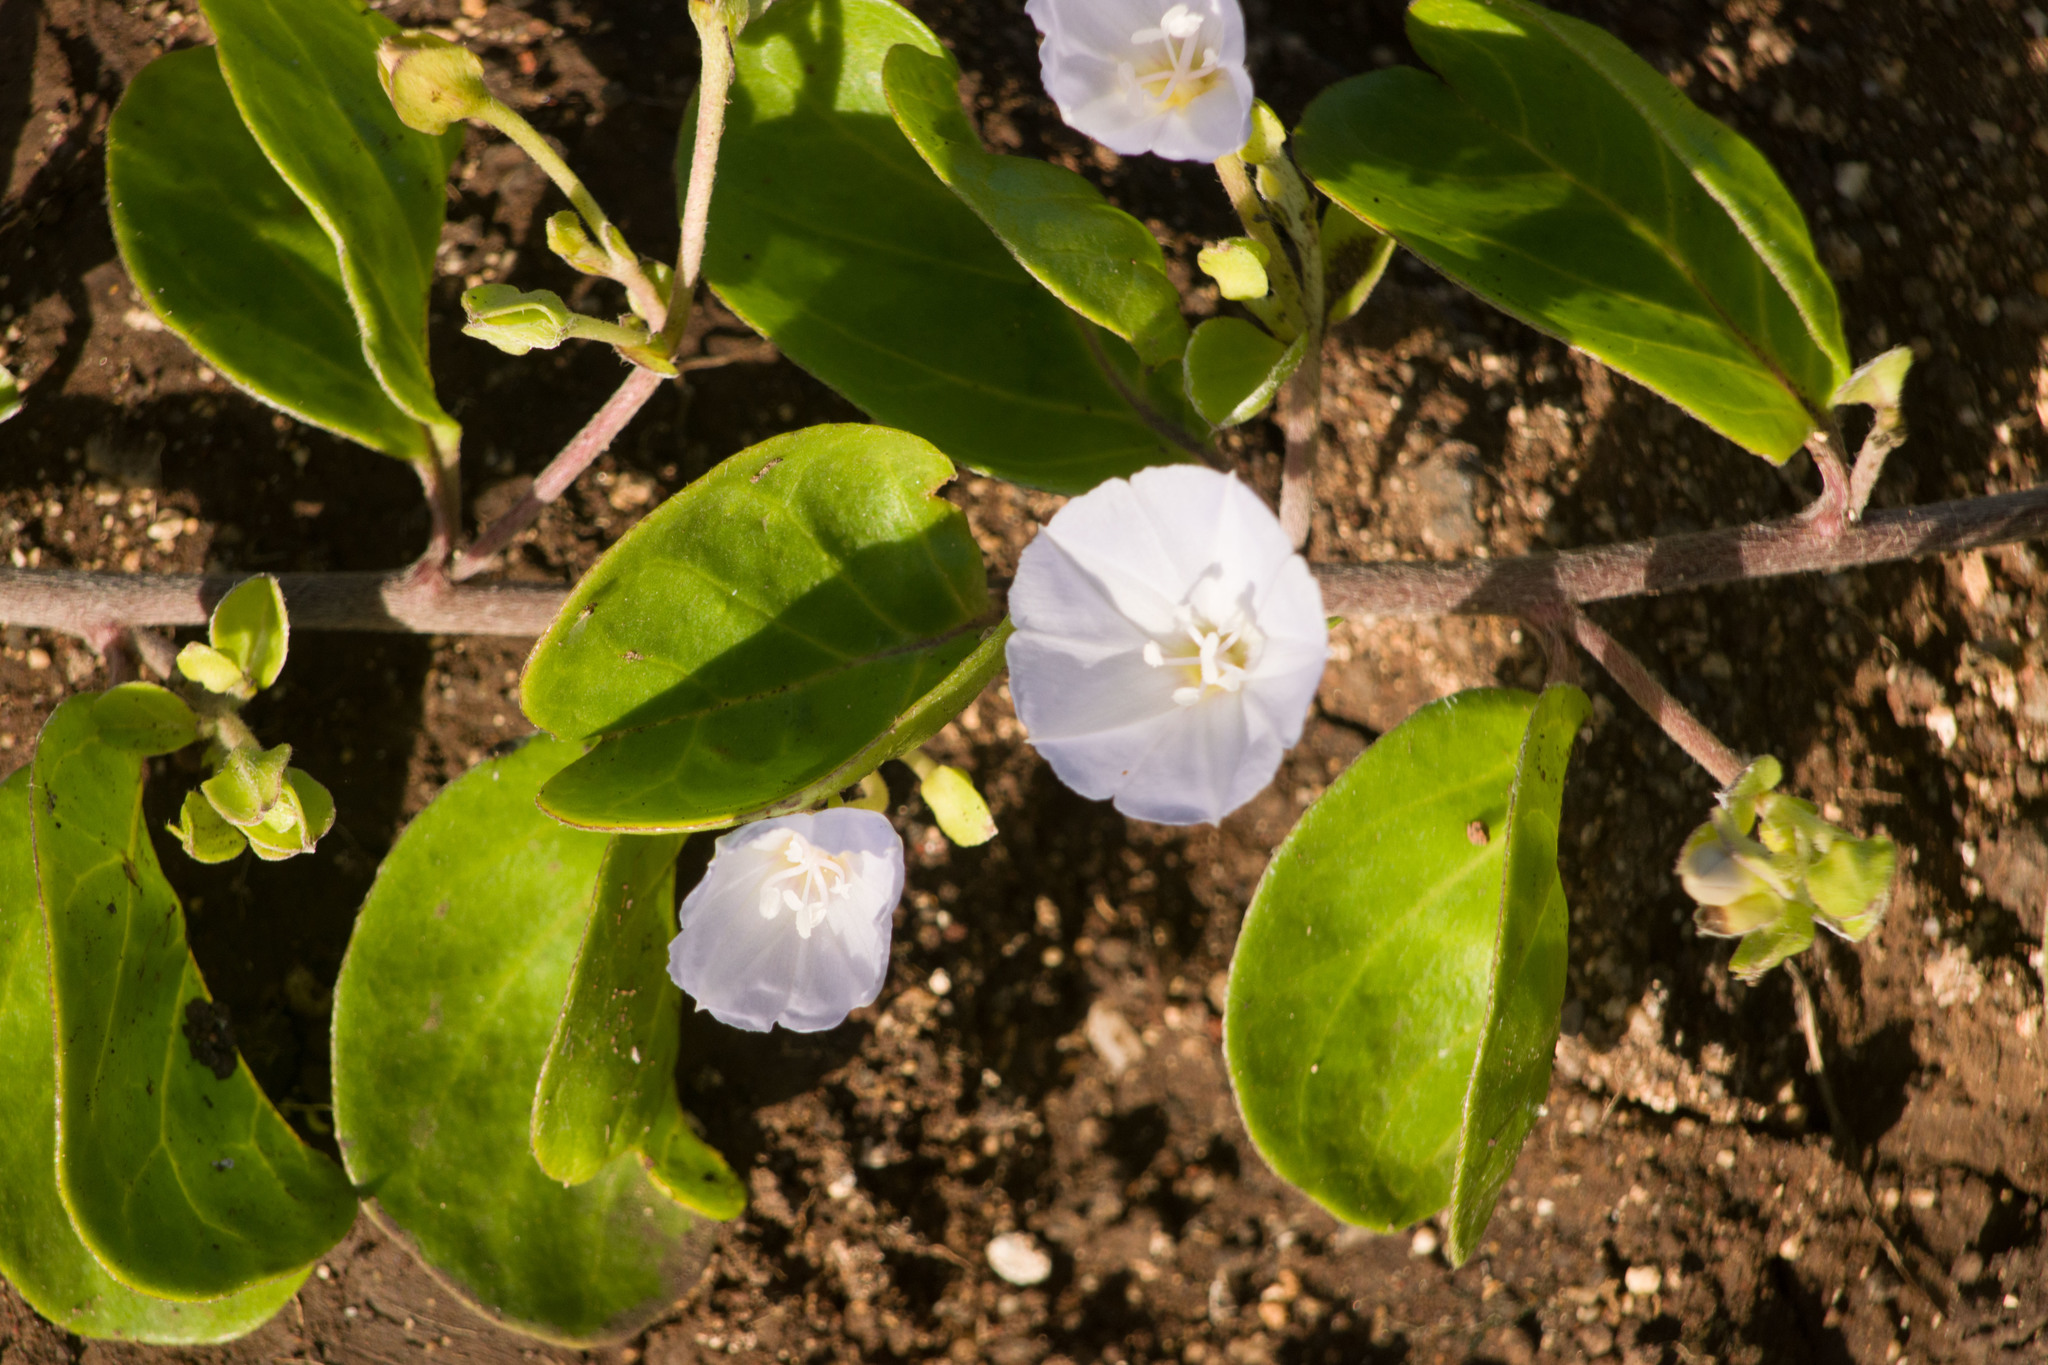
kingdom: Plantae
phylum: Tracheophyta
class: Magnoliopsida
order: Solanales
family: Convolvulaceae
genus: Jacquemontia
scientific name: Jacquemontia sandwicensis
